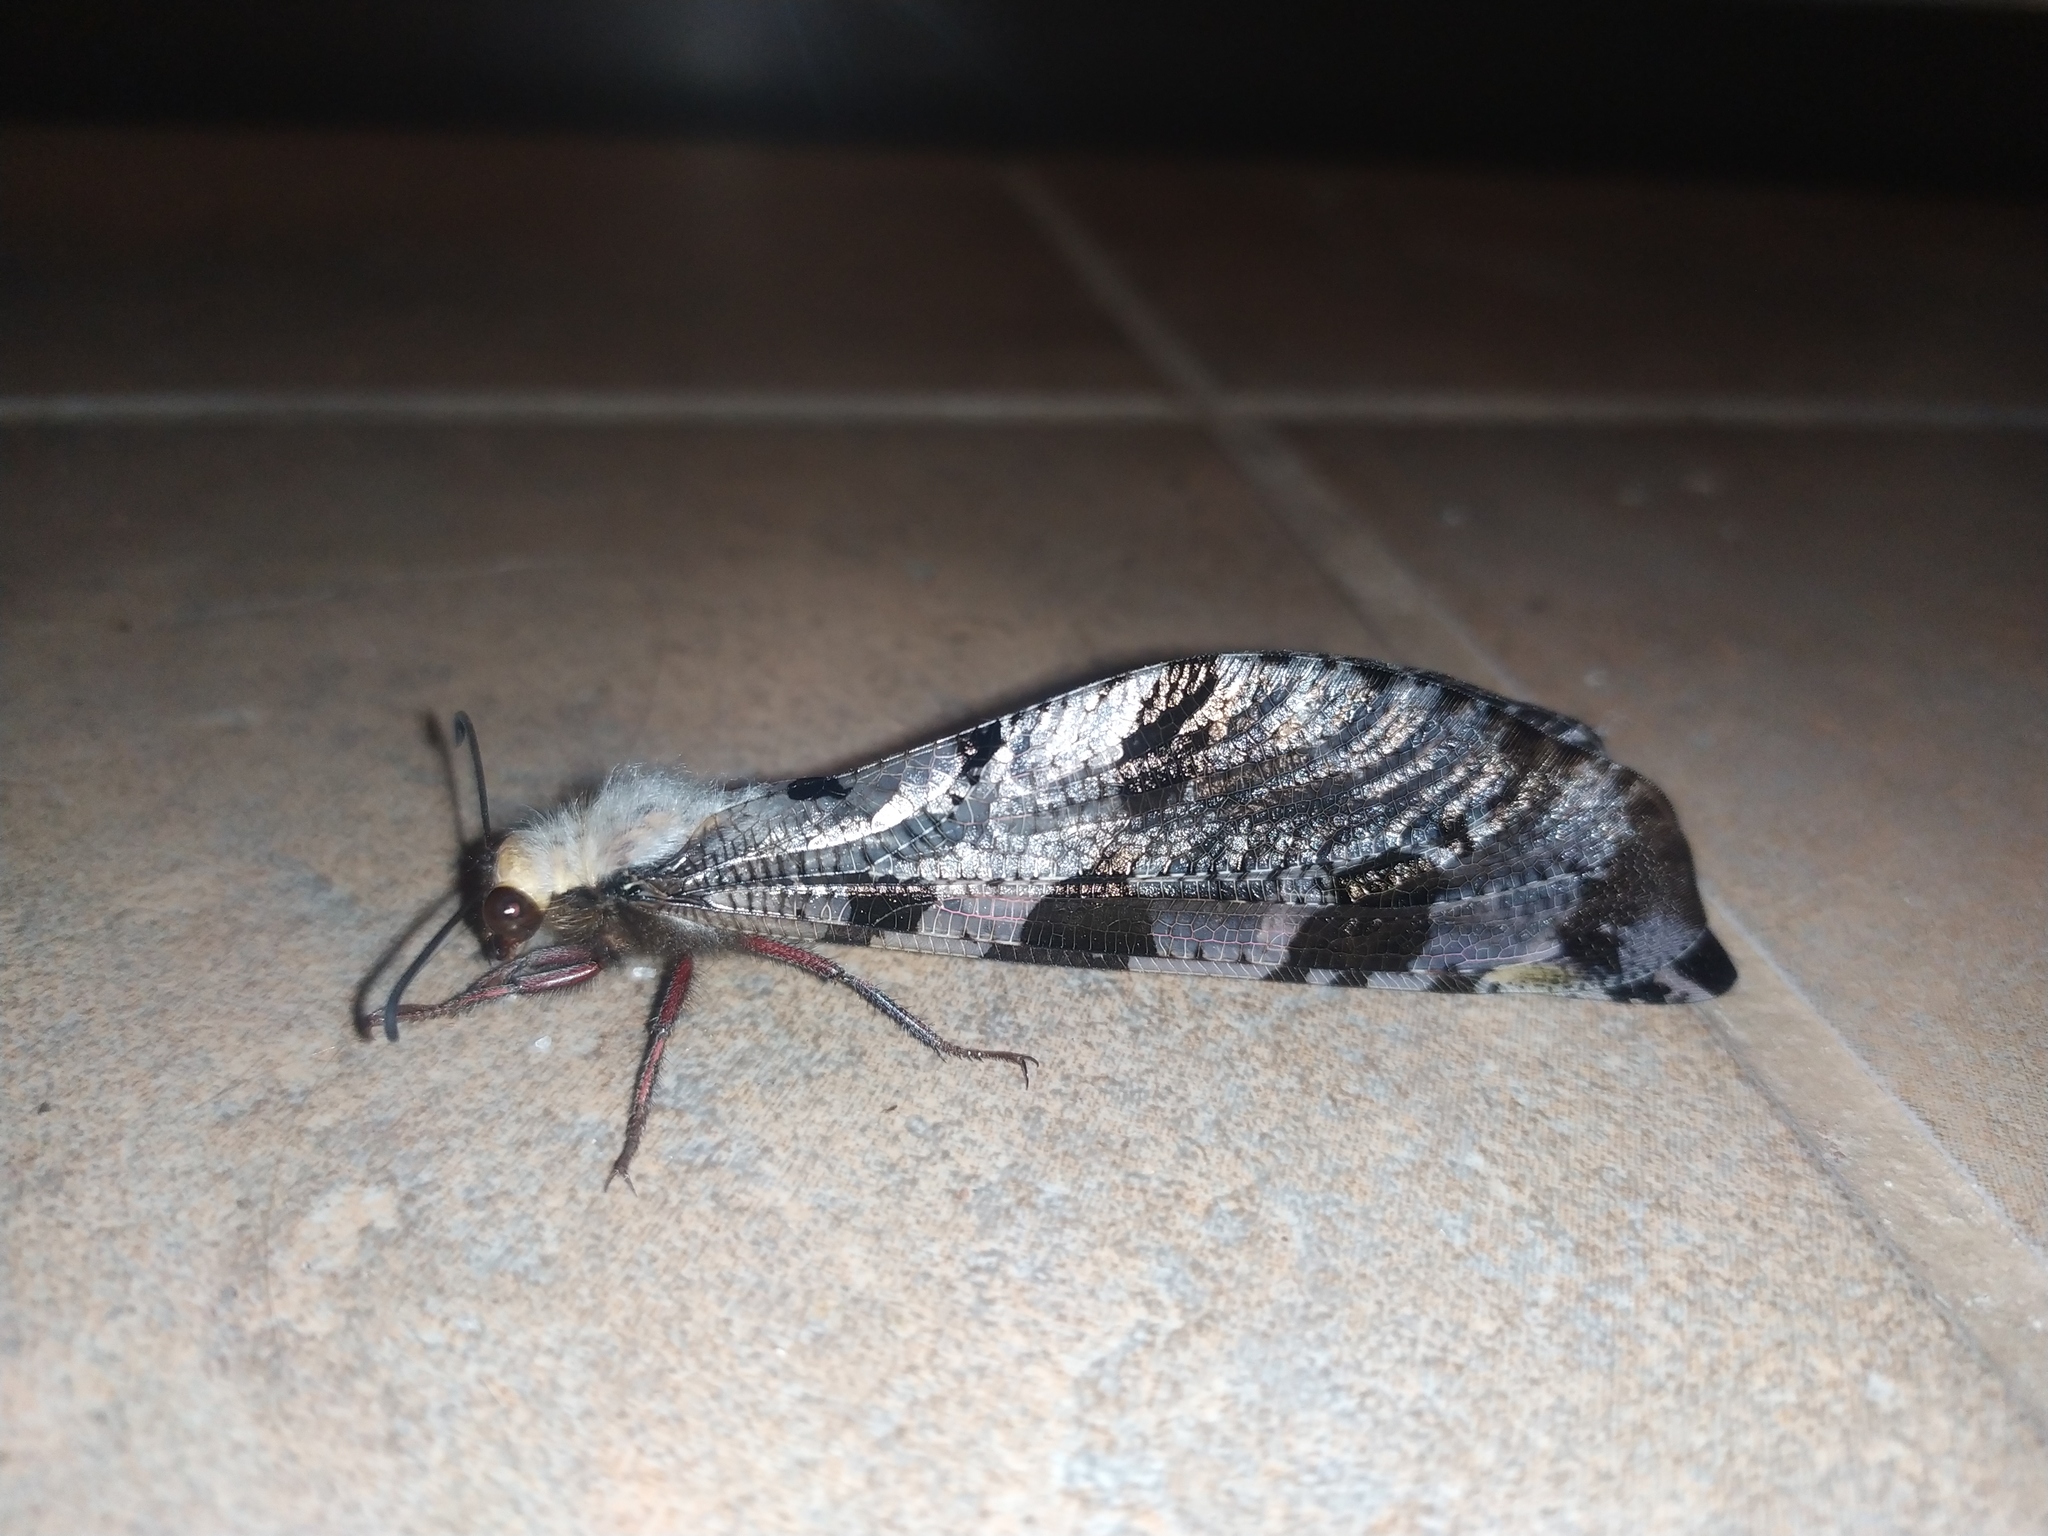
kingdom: Animalia
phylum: Arthropoda
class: Insecta
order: Neuroptera
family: Myrmeleontidae
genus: Lachlathetes
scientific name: Lachlathetes moestus
